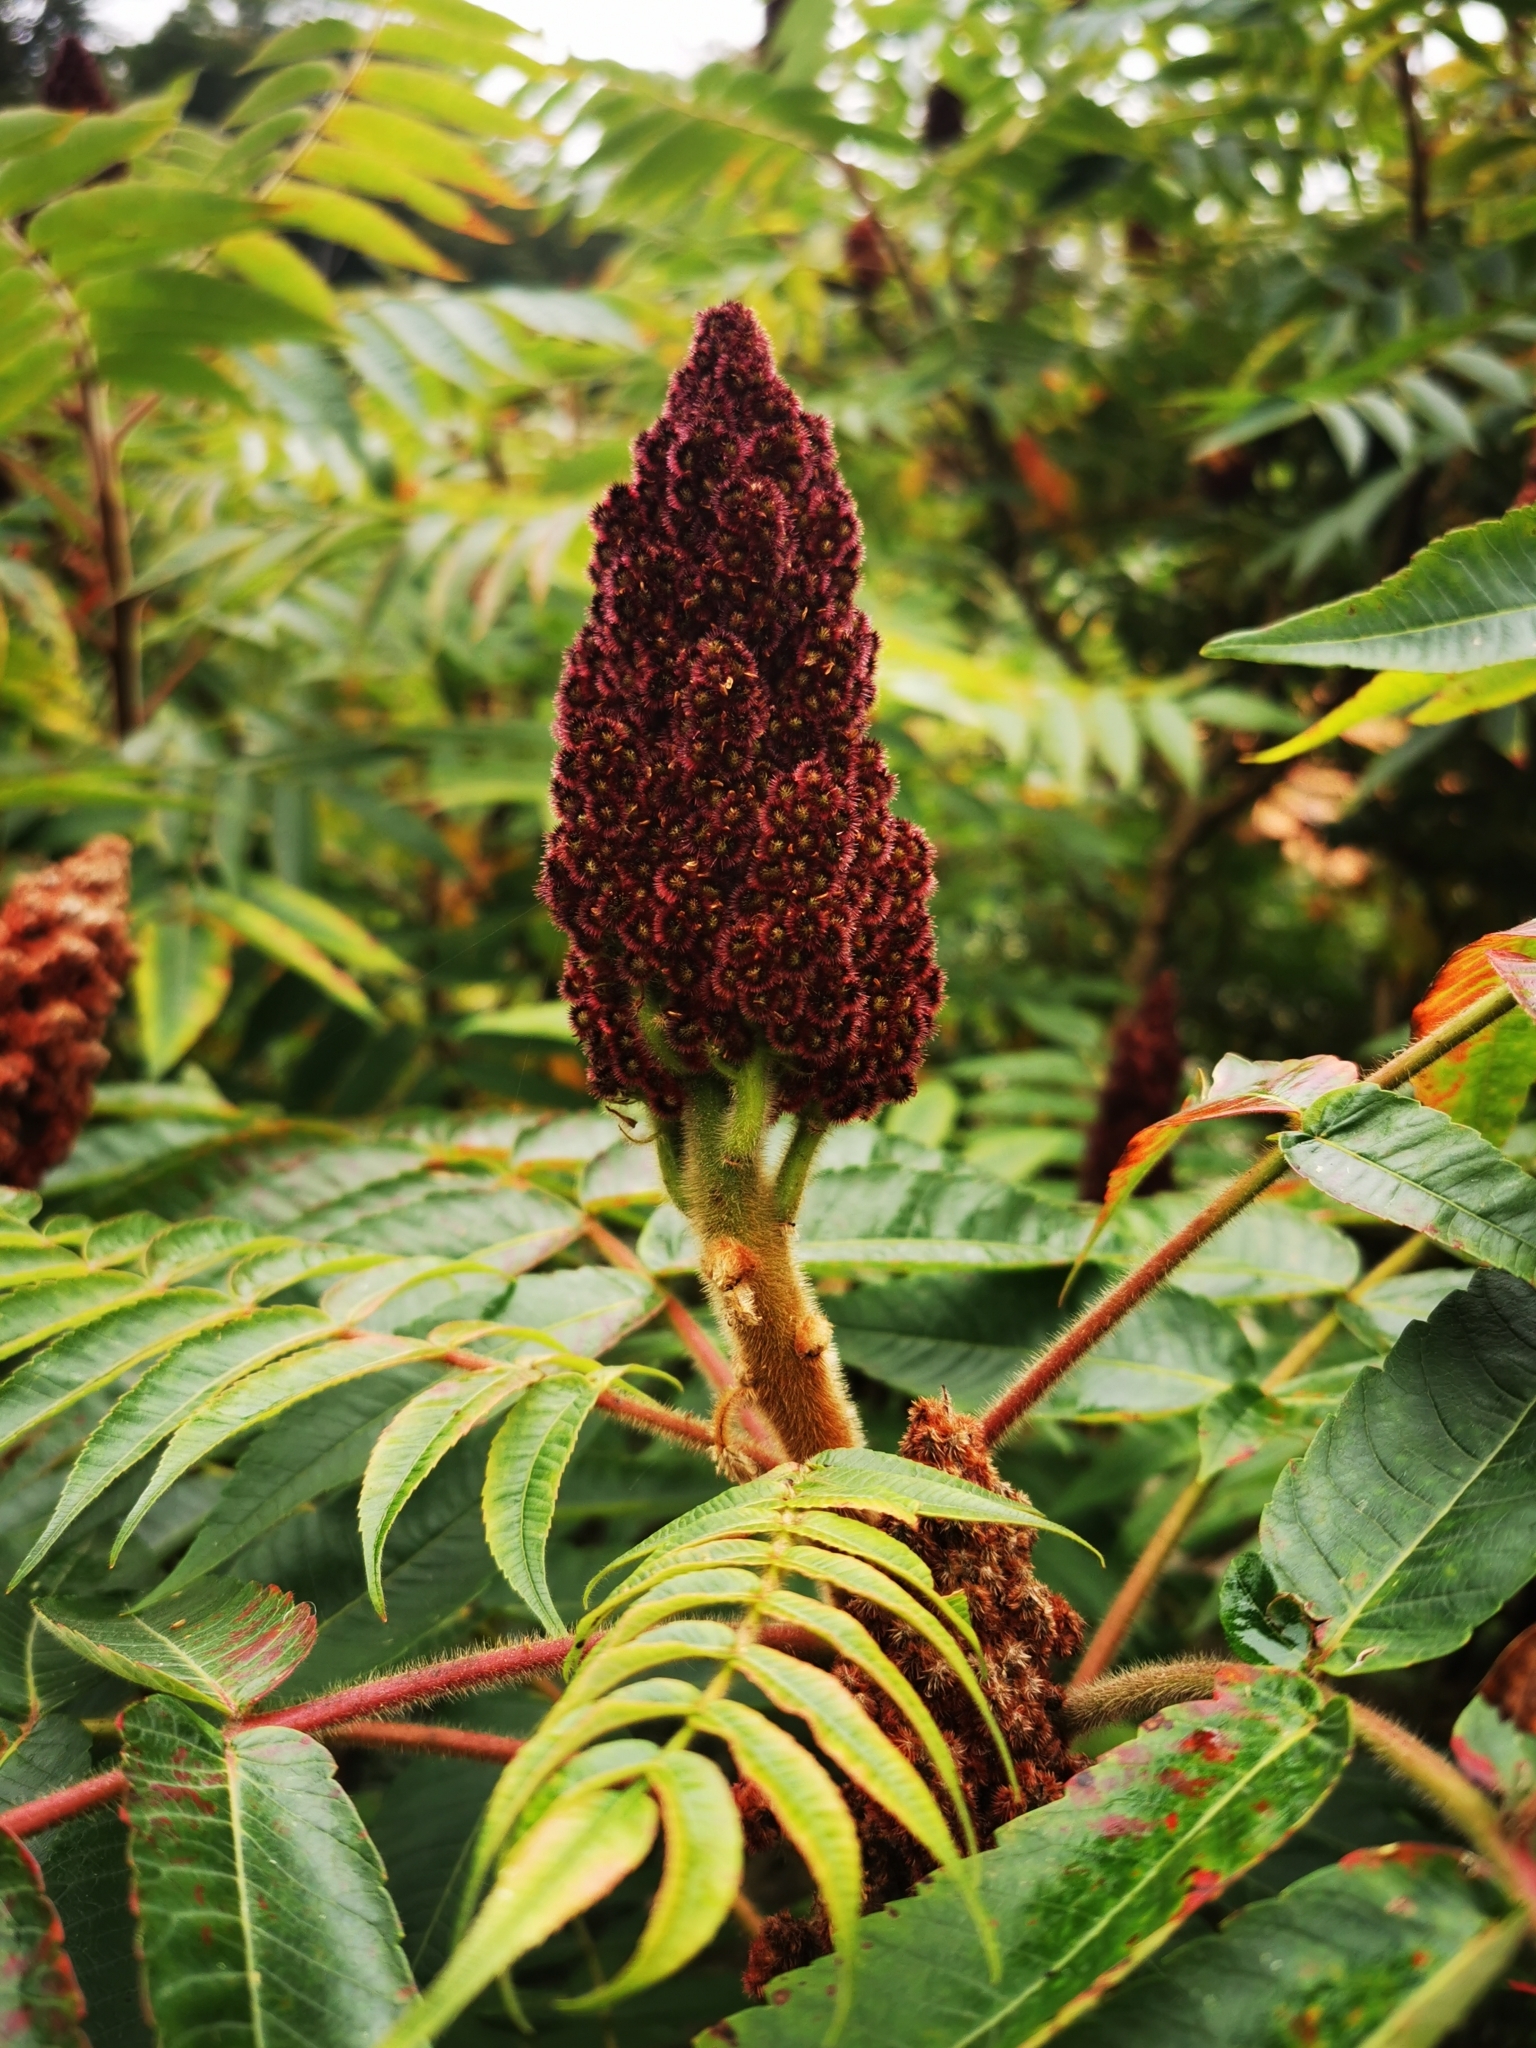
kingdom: Plantae
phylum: Tracheophyta
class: Magnoliopsida
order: Sapindales
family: Anacardiaceae
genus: Rhus
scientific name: Rhus typhina
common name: Staghorn sumac
